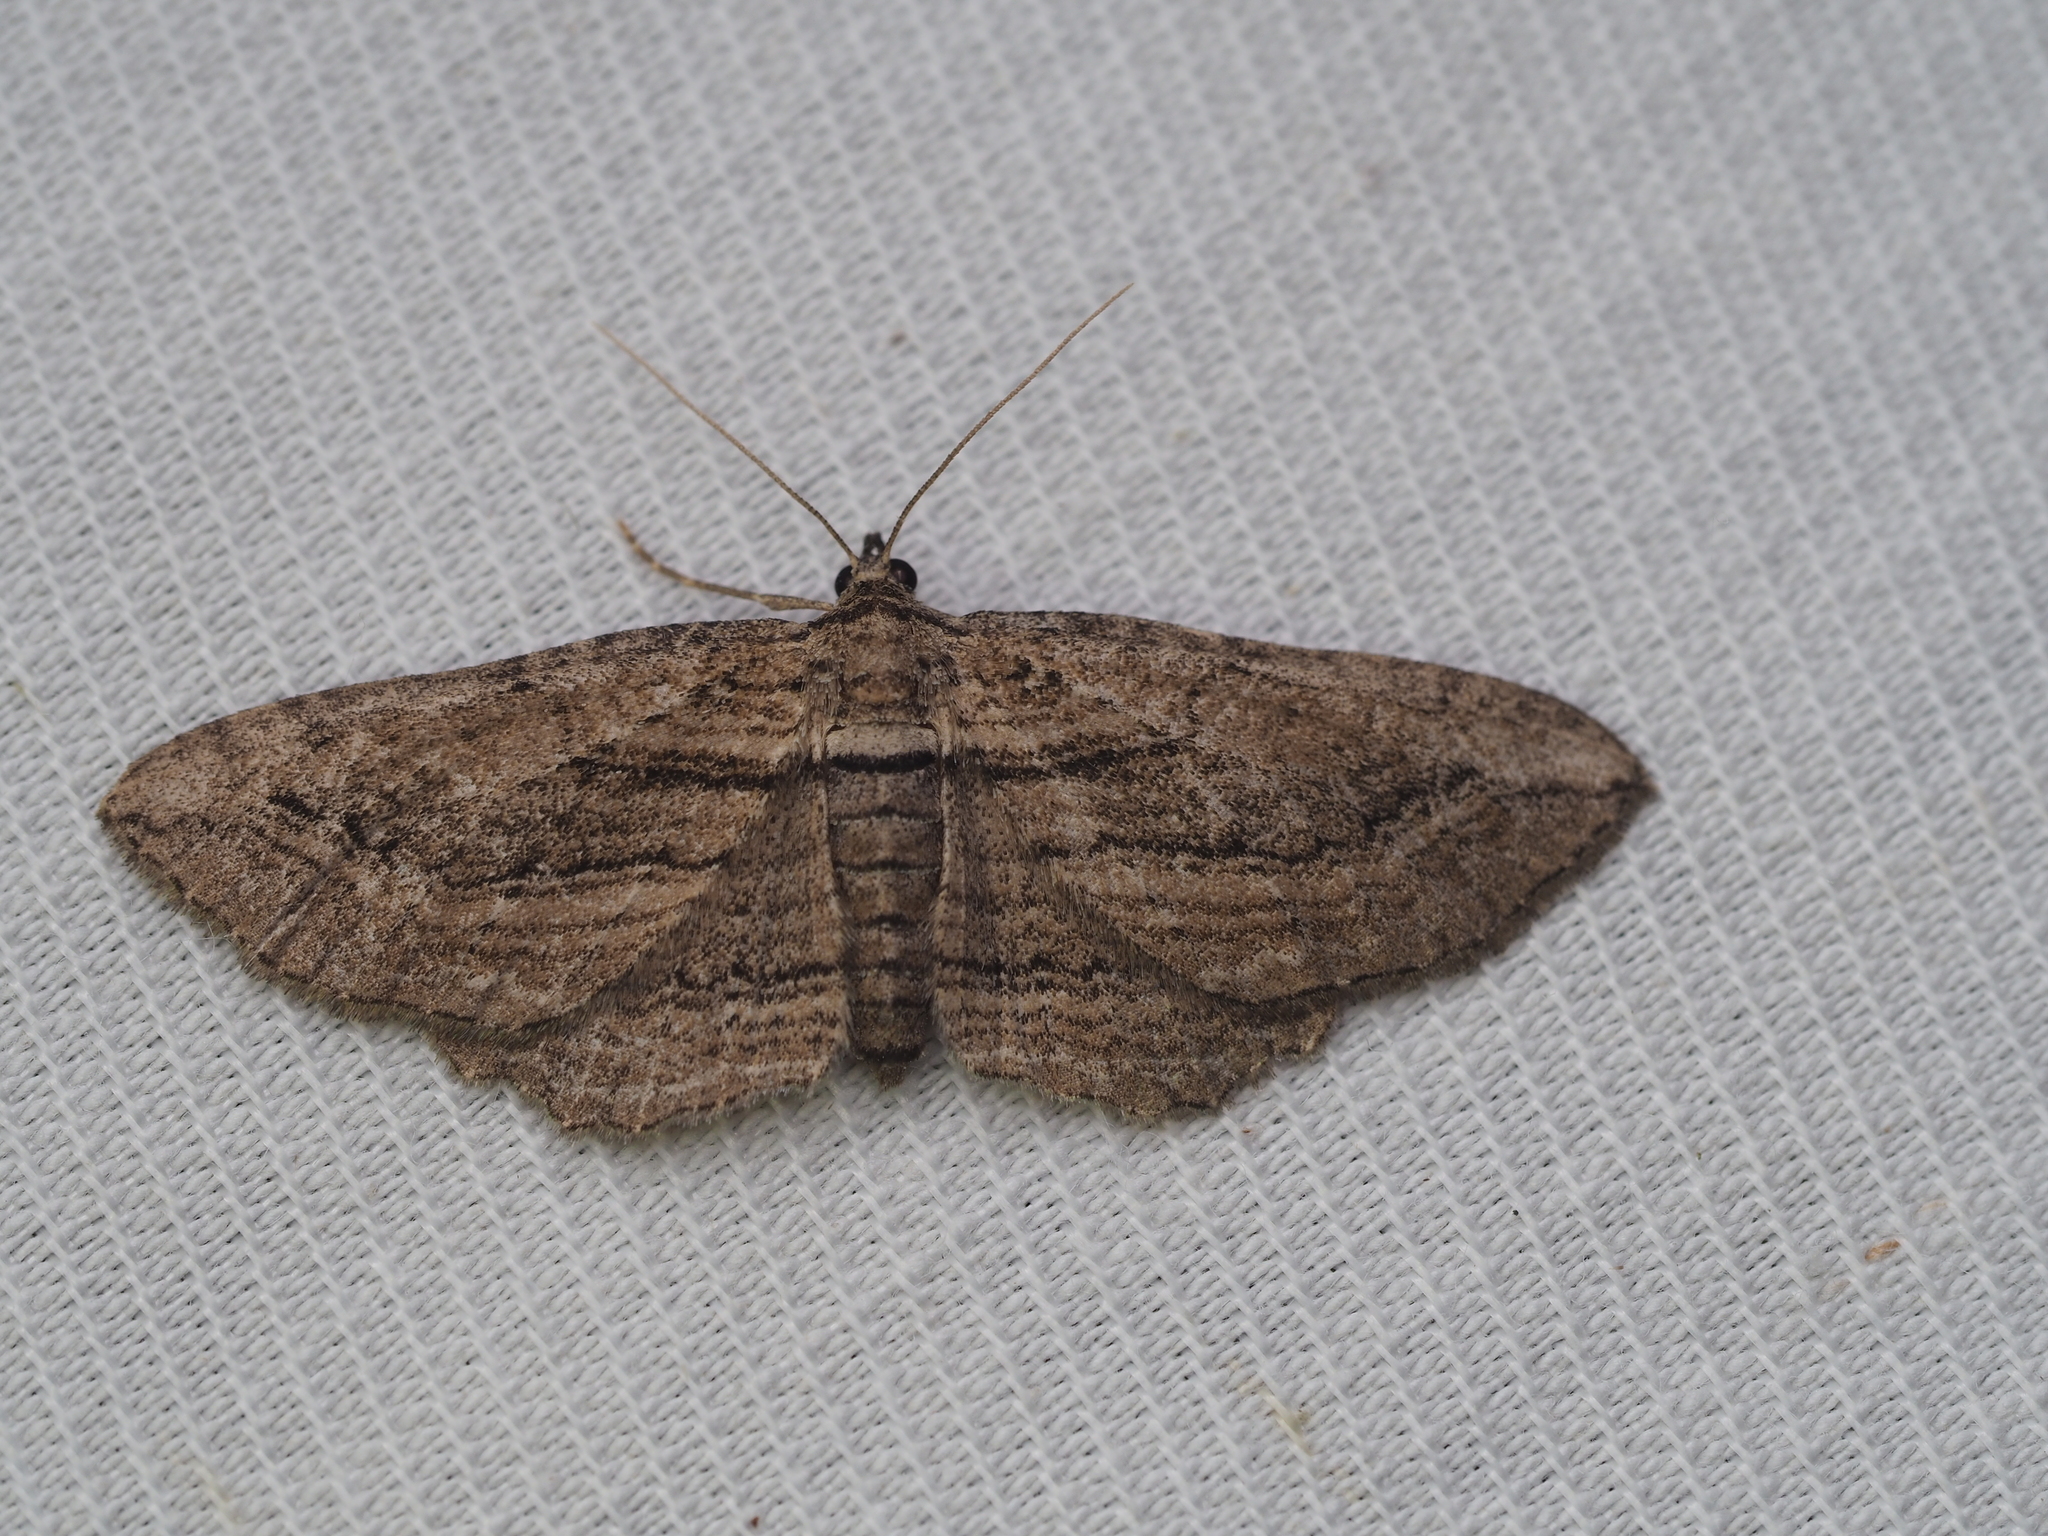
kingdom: Animalia
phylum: Arthropoda
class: Insecta
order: Lepidoptera
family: Geometridae
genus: Horisme
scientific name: Horisme corticata
